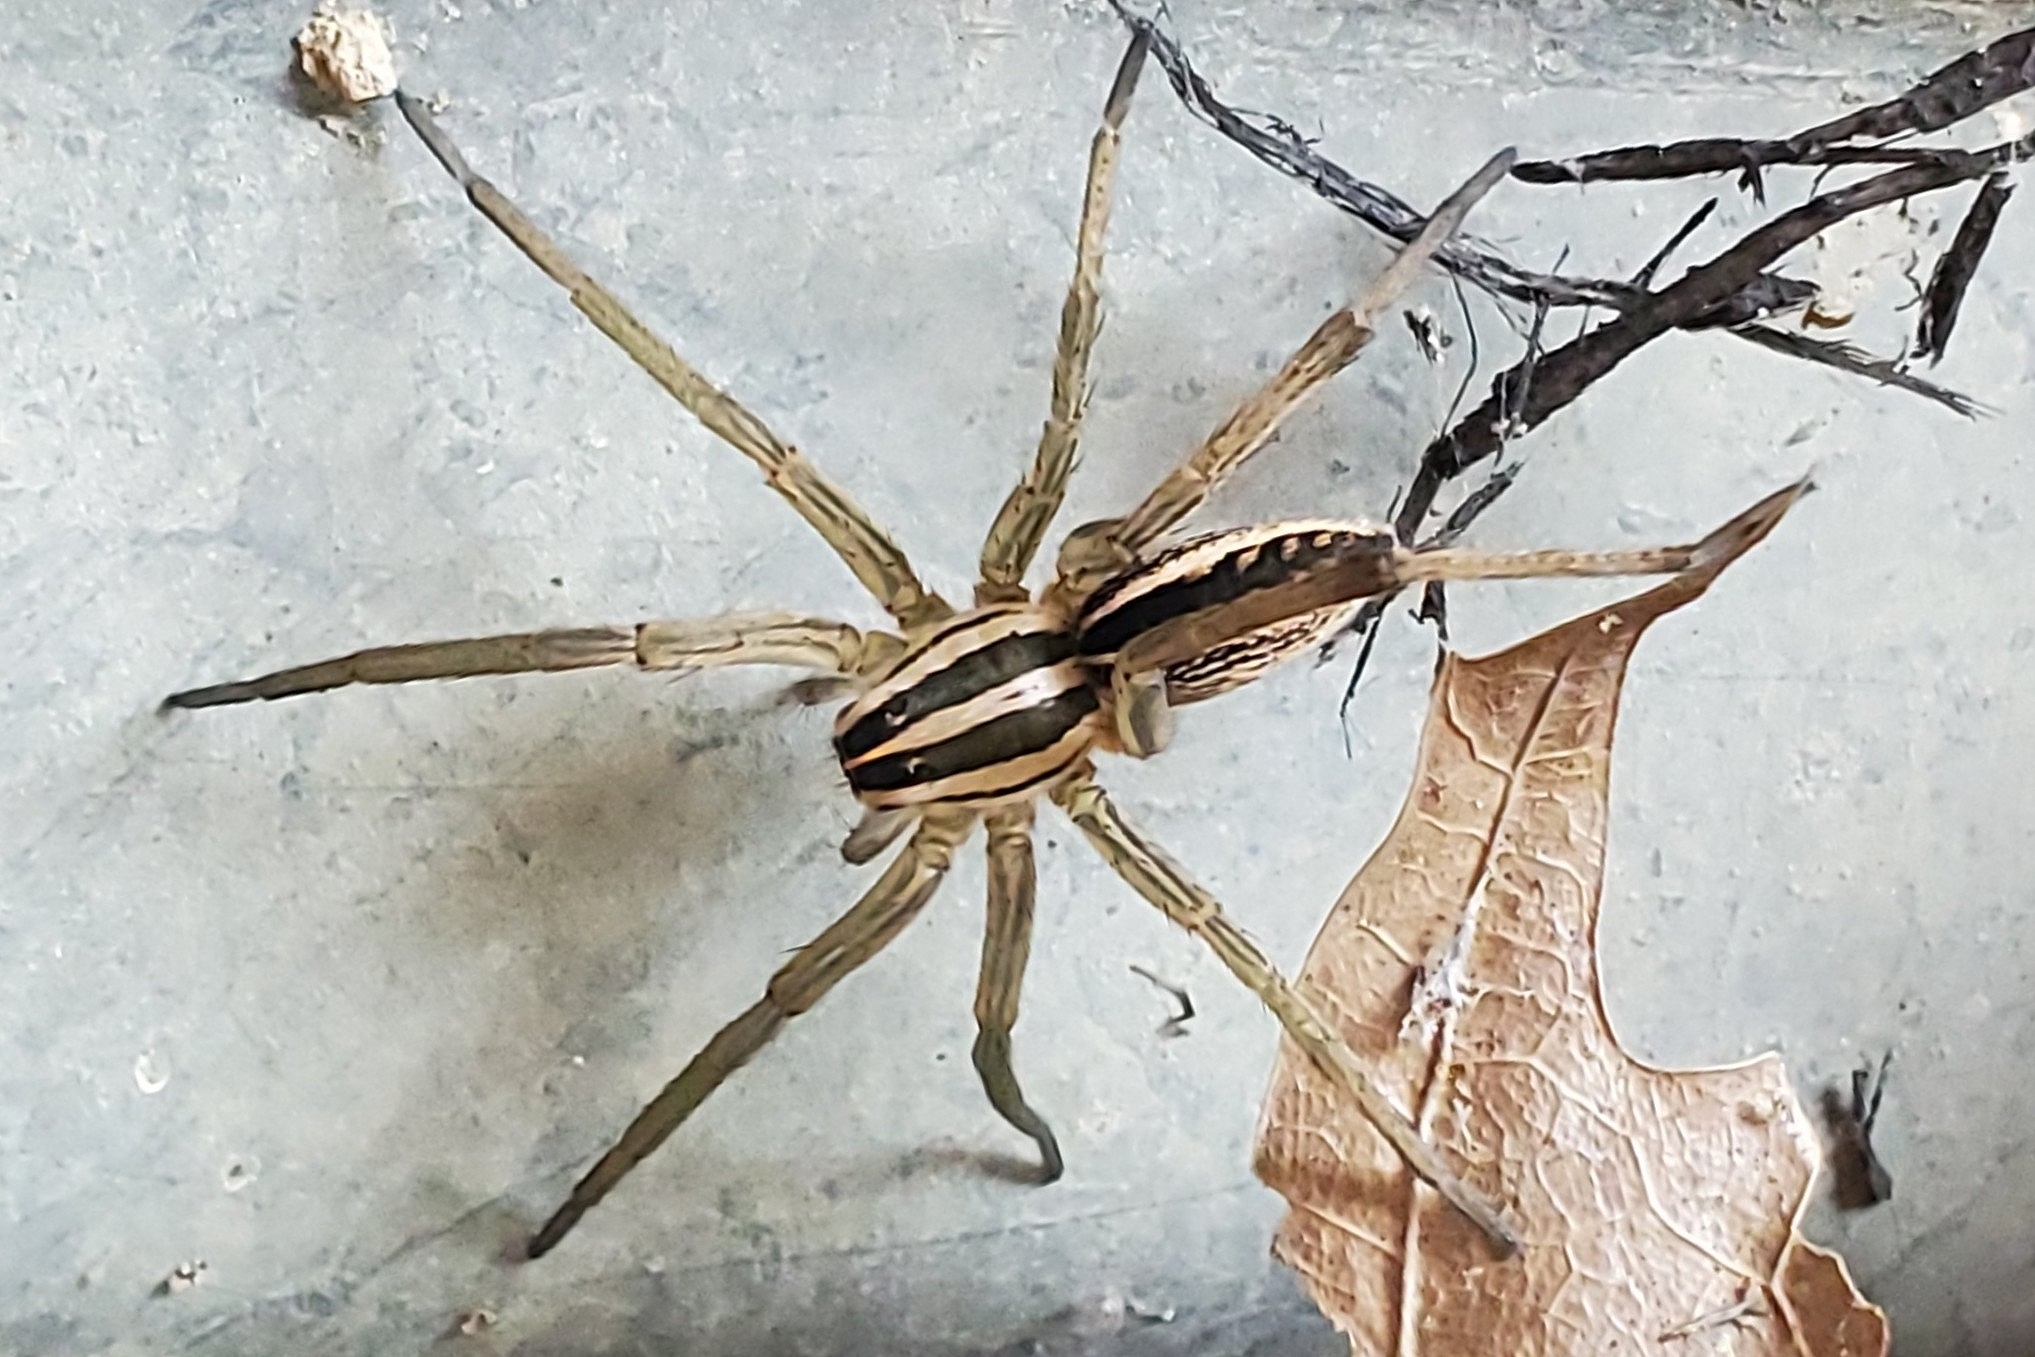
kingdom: Animalia
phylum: Arthropoda
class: Arachnida
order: Araneae
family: Lycosidae
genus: Rabidosa
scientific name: Rabidosa rabida
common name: Rabid wolf spider
